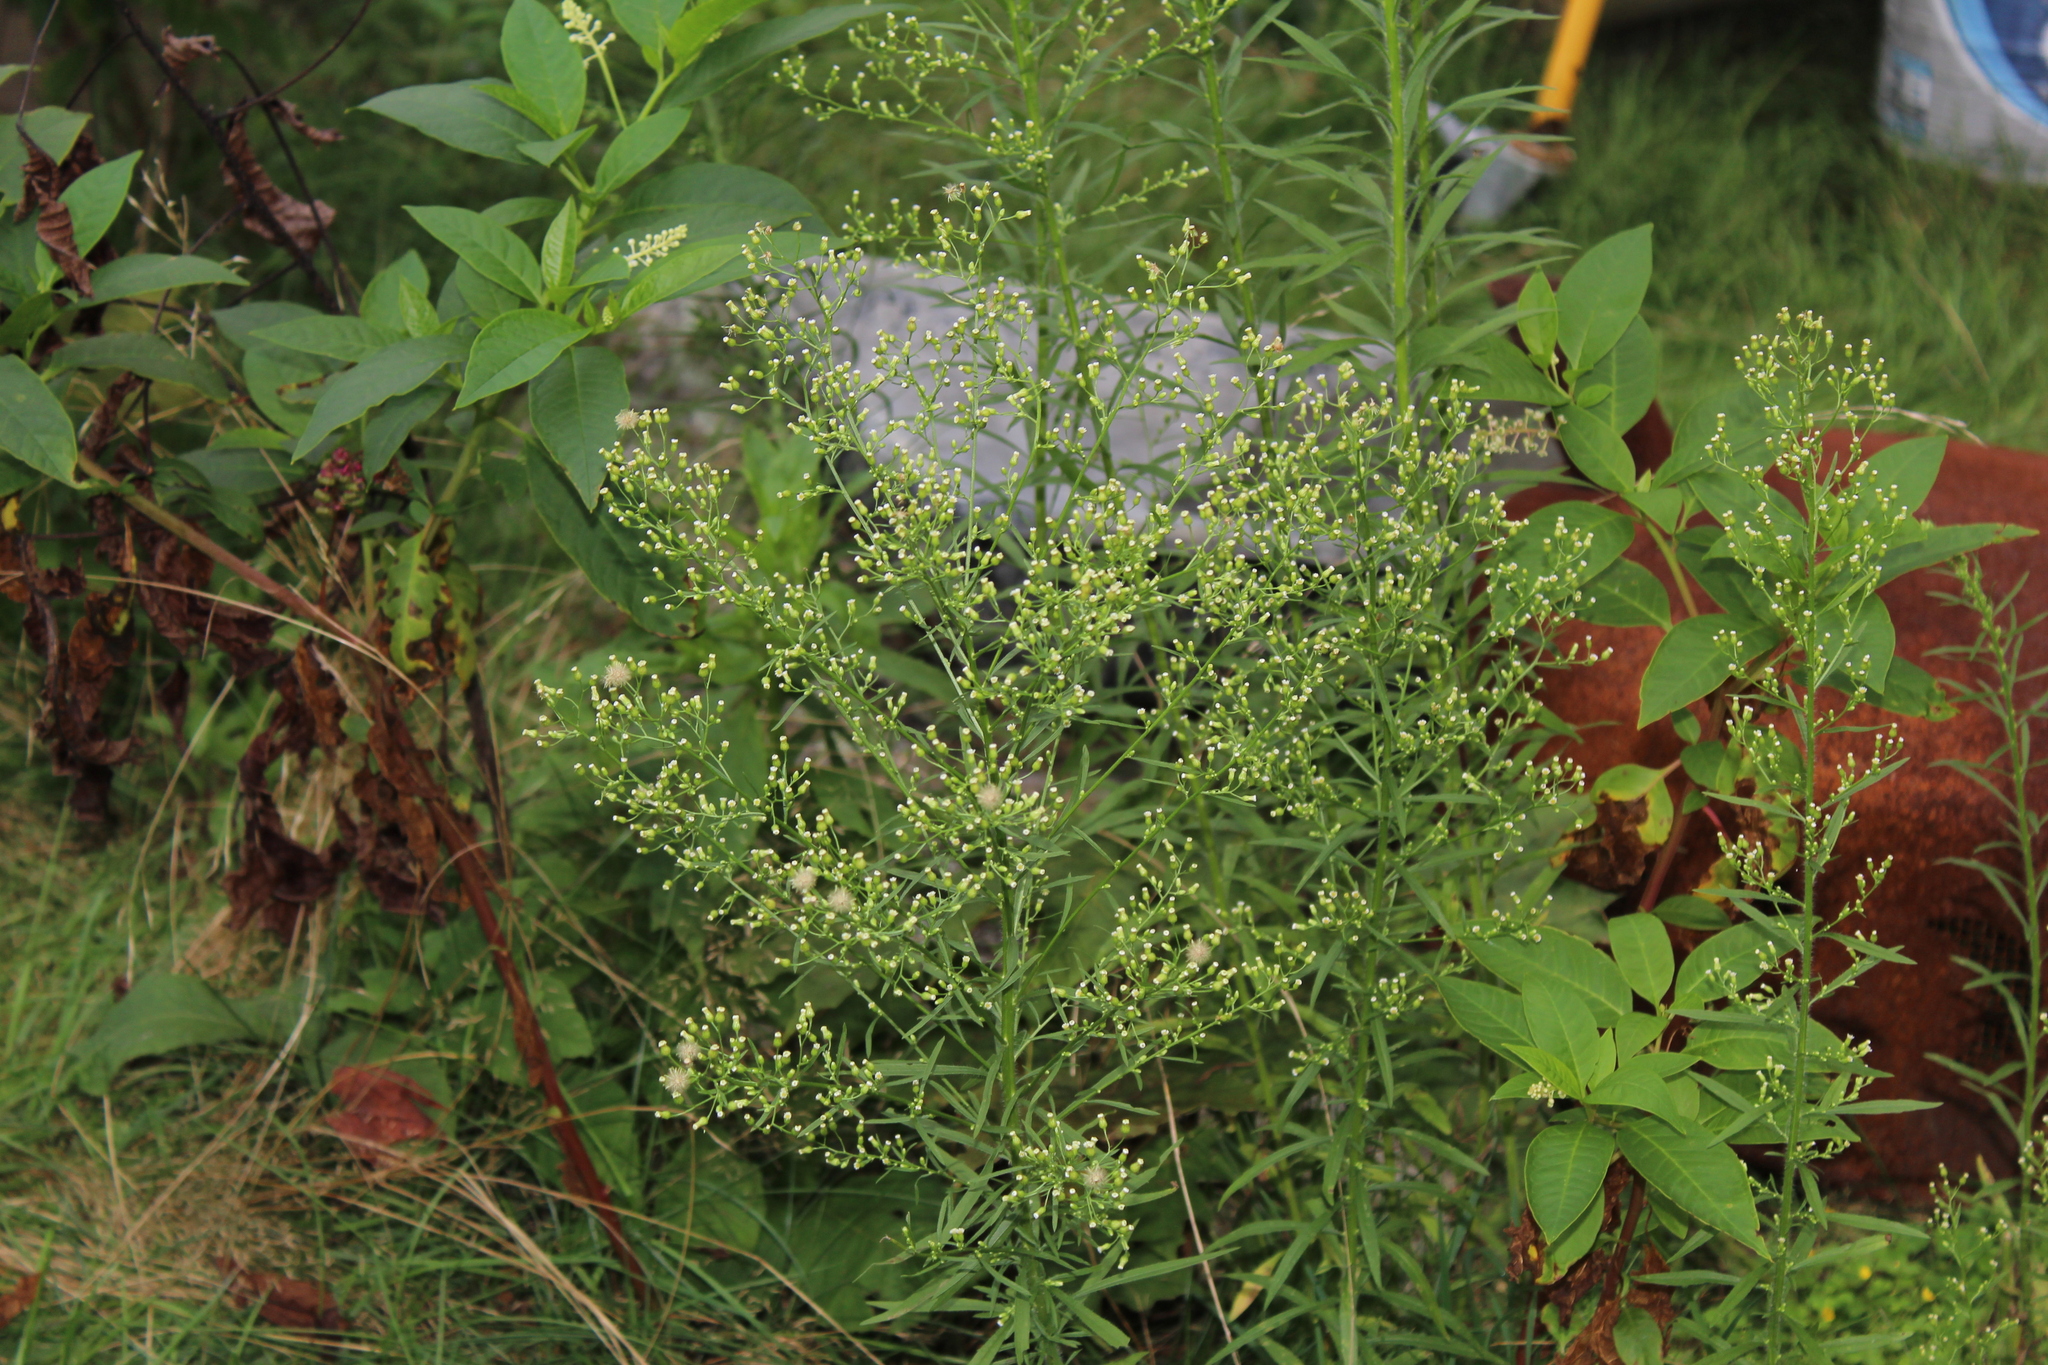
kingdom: Plantae
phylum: Tracheophyta
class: Magnoliopsida
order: Asterales
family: Asteraceae
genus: Erigeron
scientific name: Erigeron canadensis
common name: Canadian fleabane
